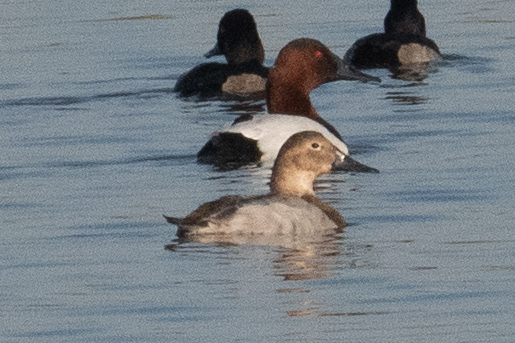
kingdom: Animalia
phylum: Chordata
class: Aves
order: Anseriformes
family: Anatidae
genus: Aythya
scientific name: Aythya valisineria
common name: Canvasback
